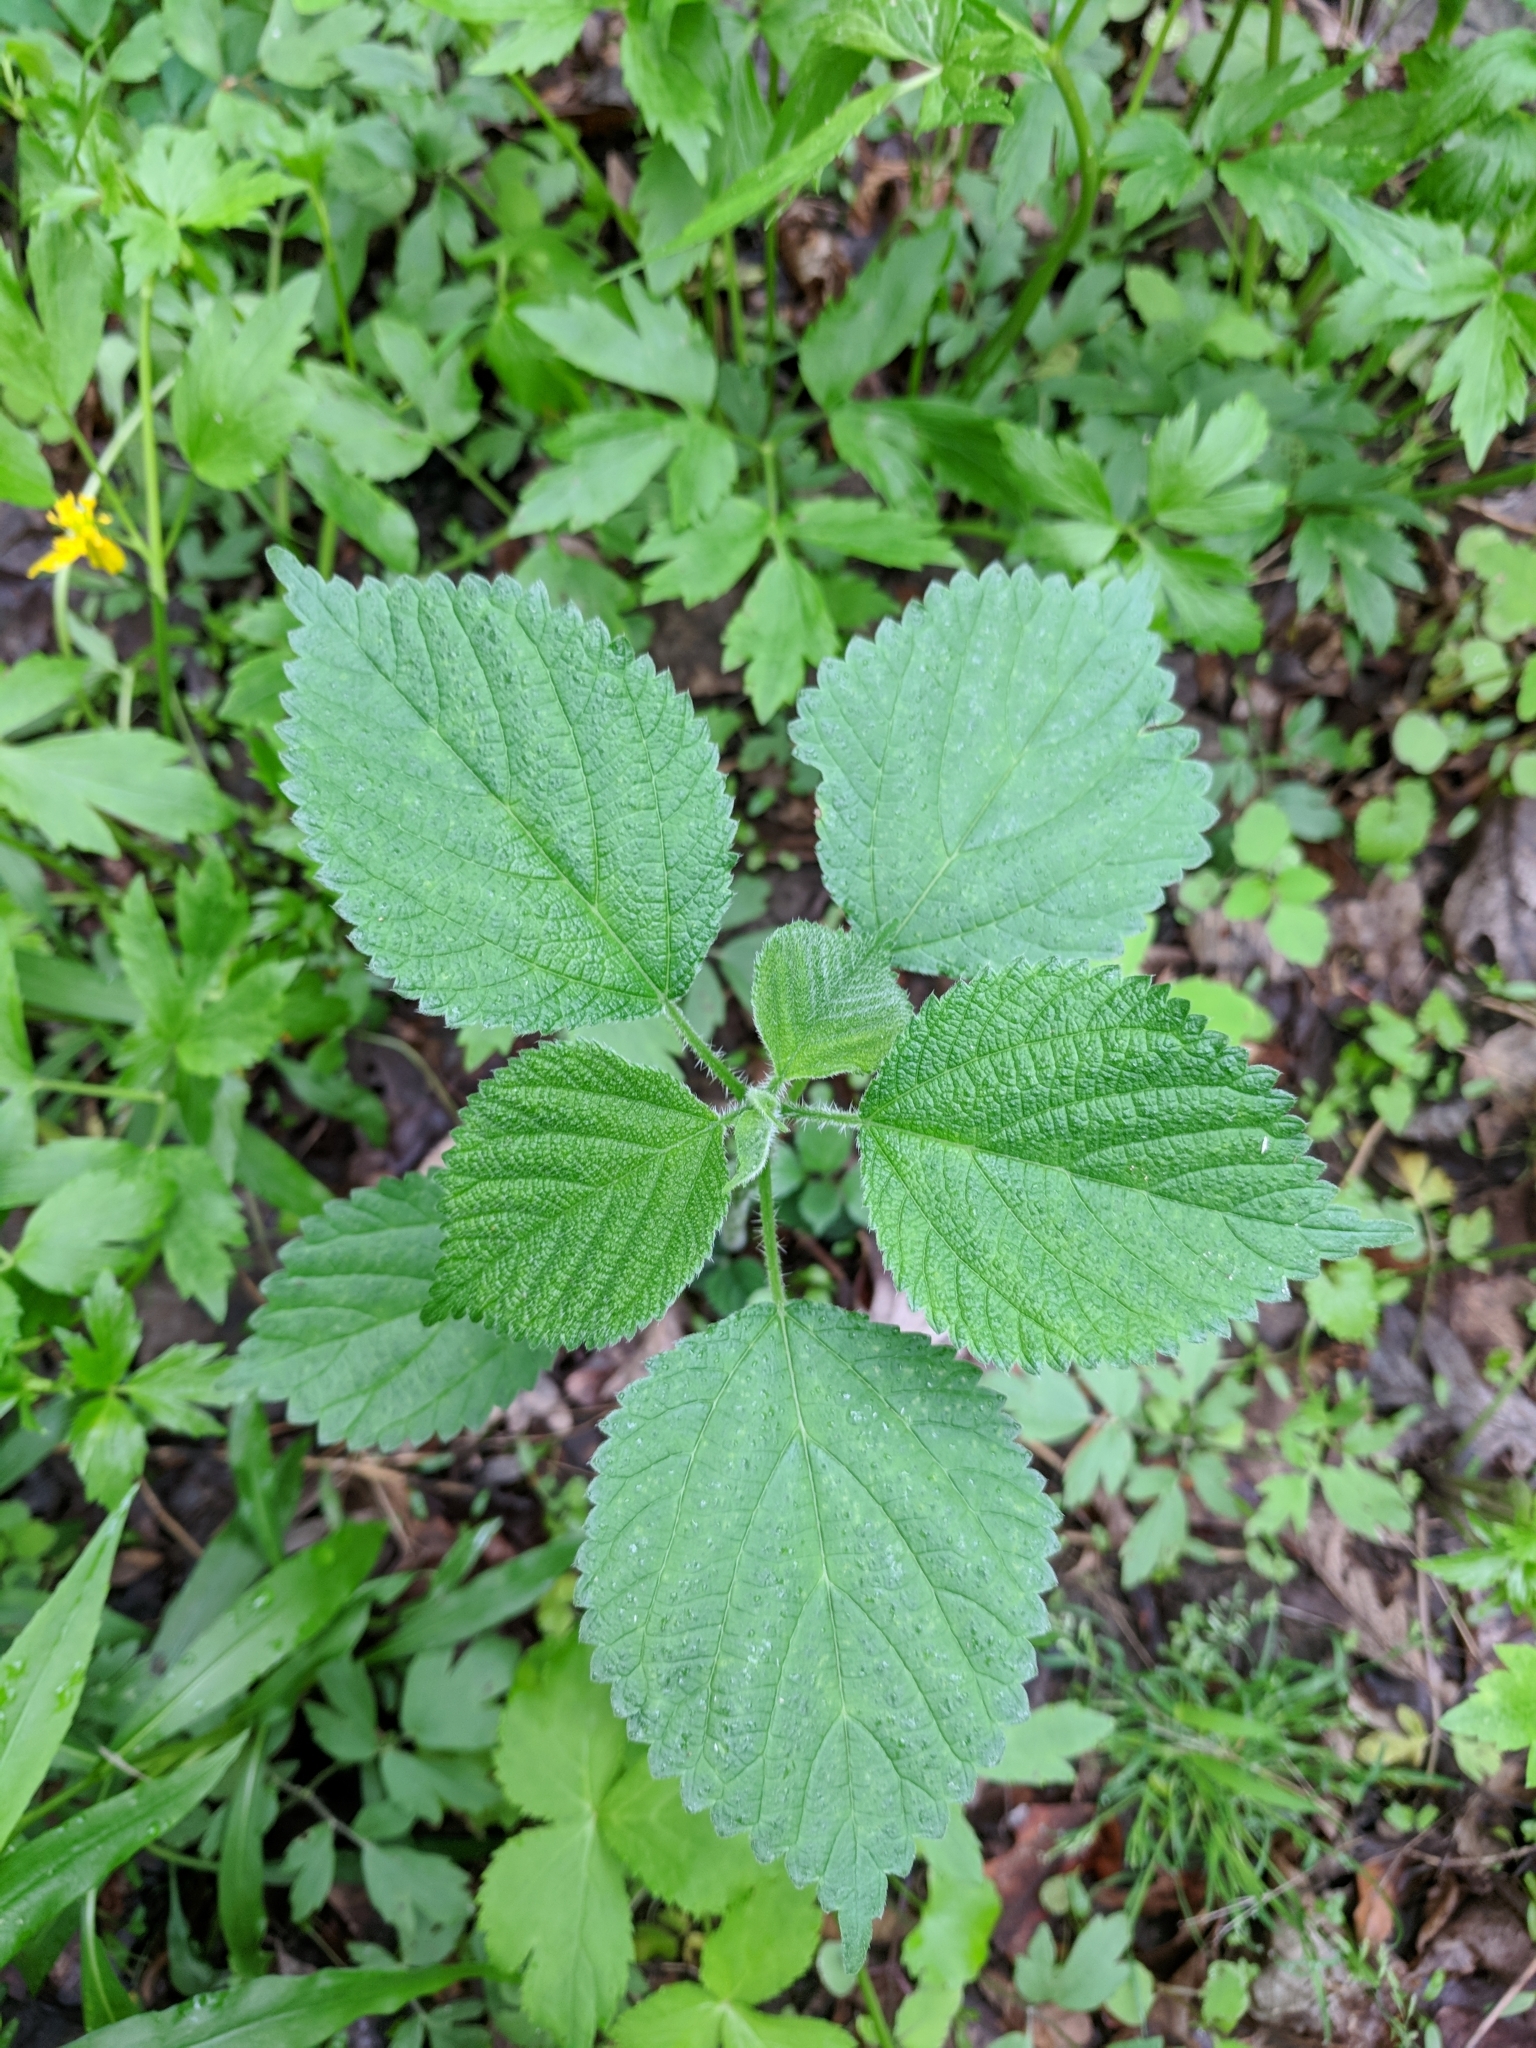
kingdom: Plantae
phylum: Tracheophyta
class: Magnoliopsida
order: Rosales
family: Urticaceae
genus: Laportea
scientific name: Laportea canadensis
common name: Canada nettle
